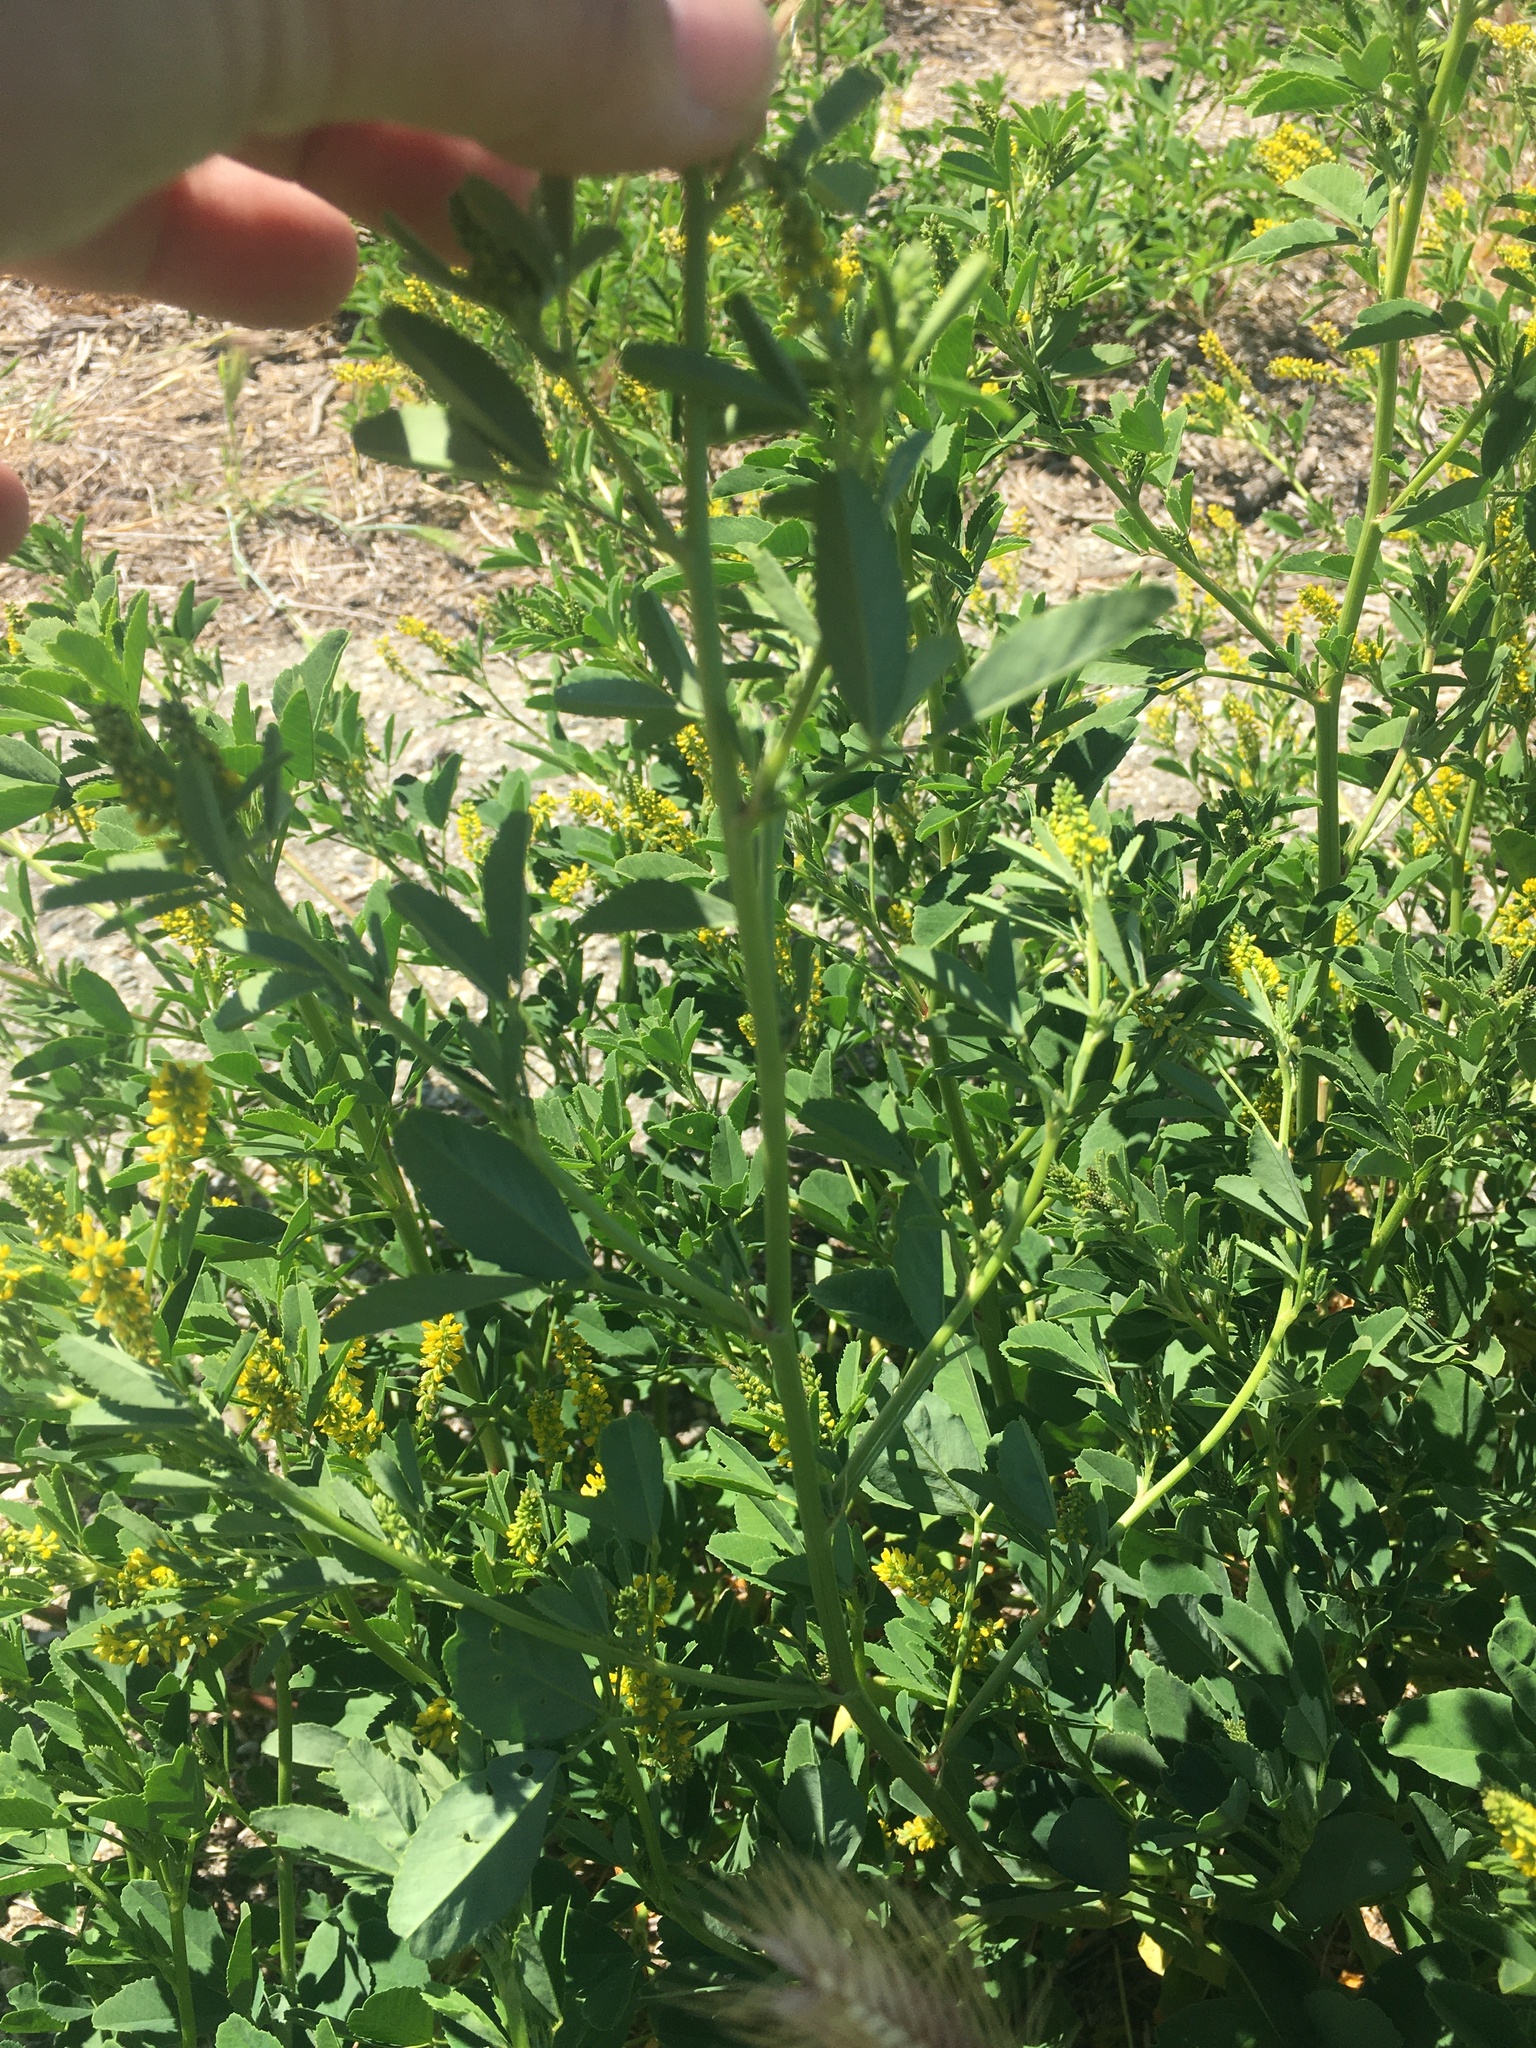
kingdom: Plantae
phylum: Tracheophyta
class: Magnoliopsida
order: Fabales
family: Fabaceae
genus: Melilotus
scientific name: Melilotus indicus
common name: Small melilot
